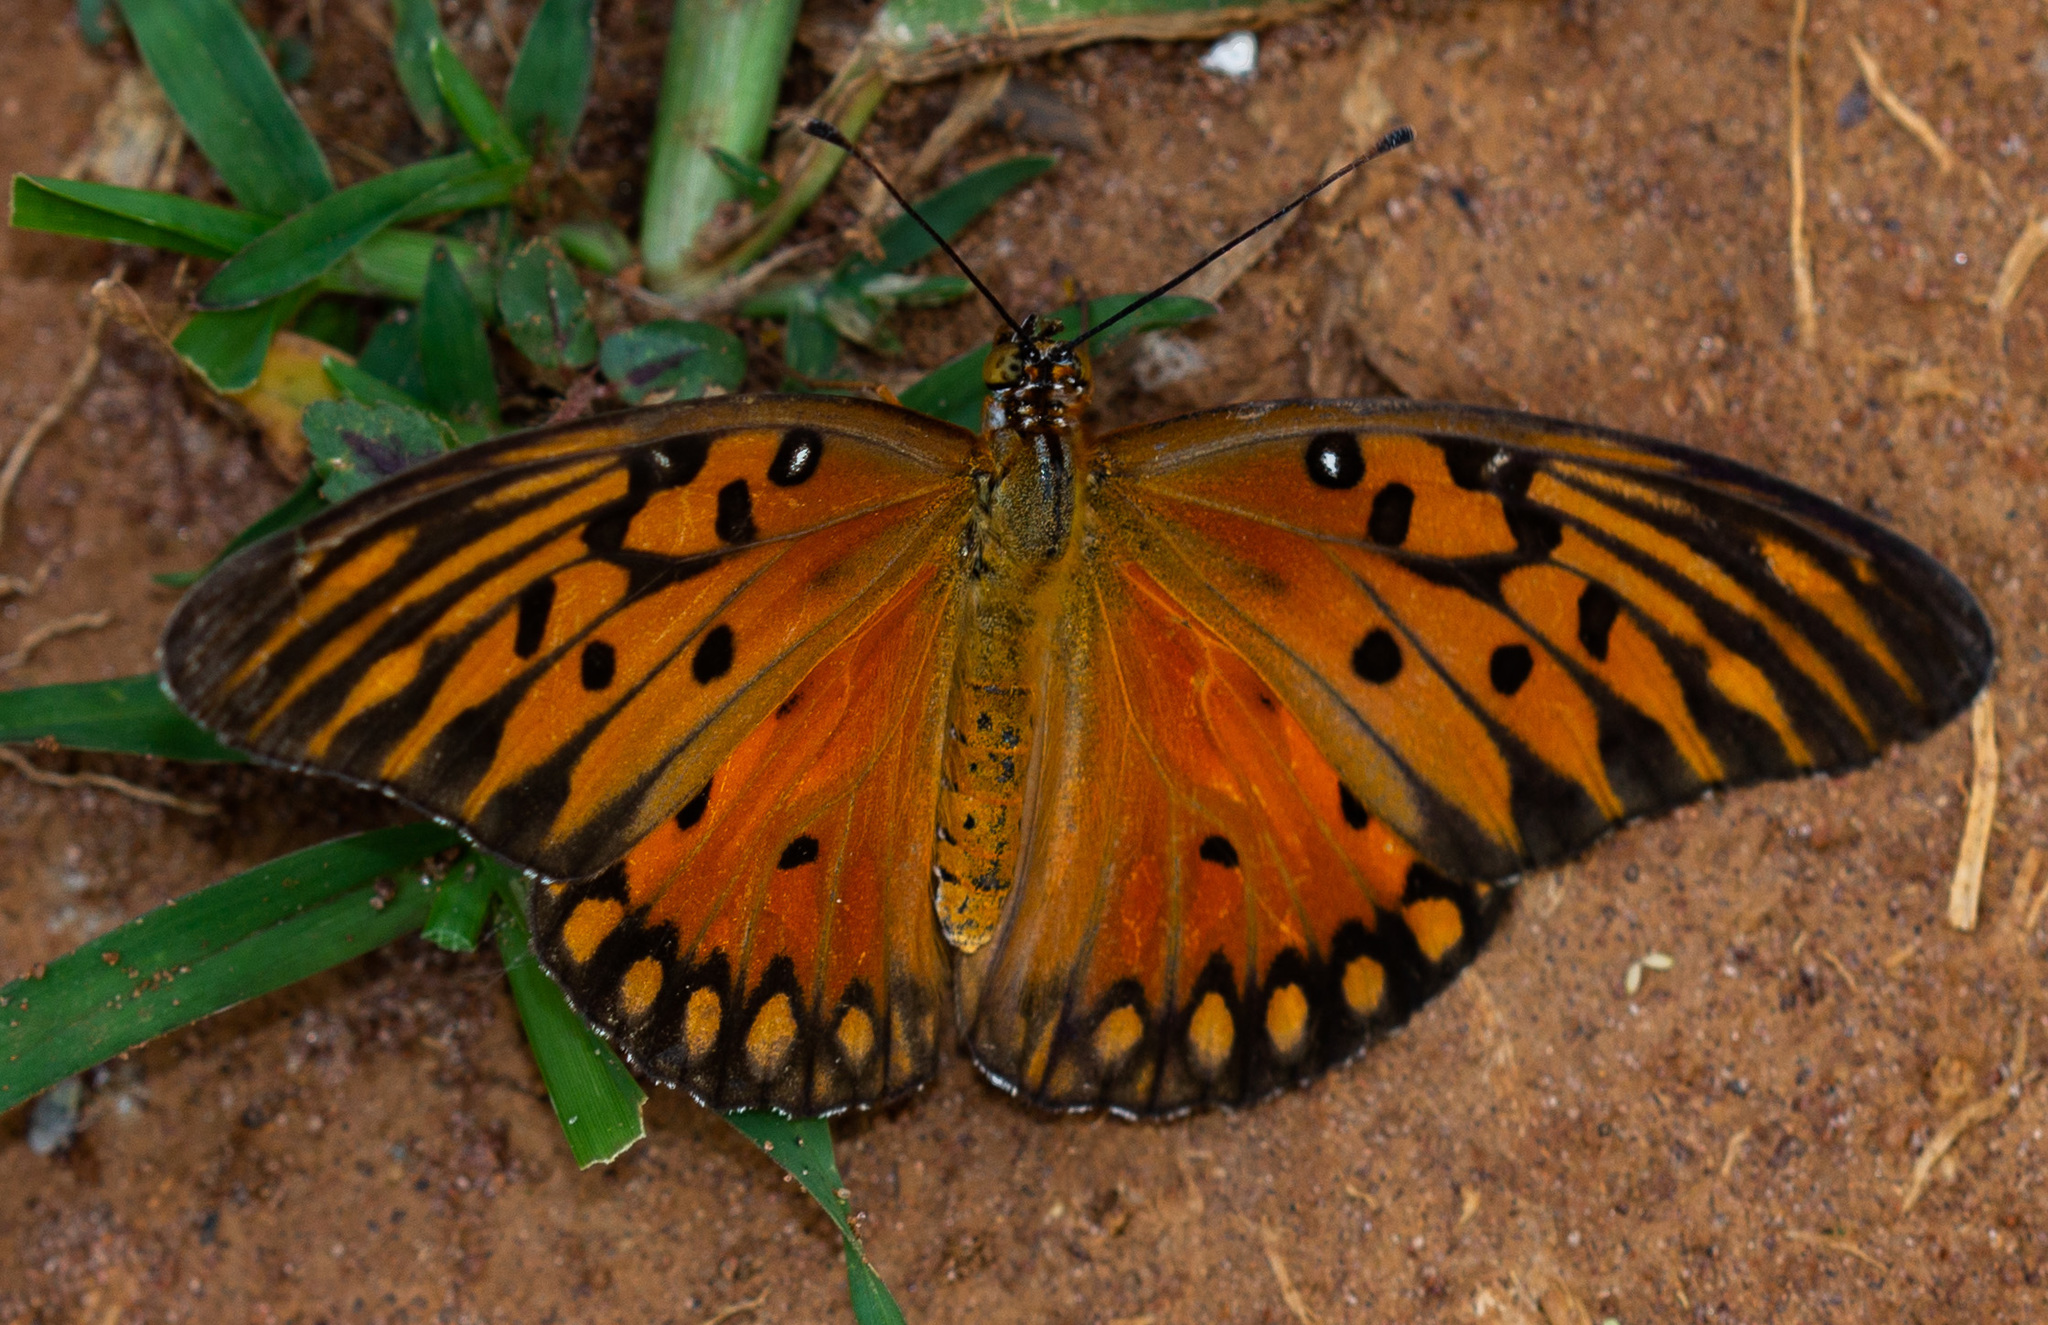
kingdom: Animalia
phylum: Arthropoda
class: Insecta
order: Lepidoptera
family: Nymphalidae
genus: Dione
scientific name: Dione vanillae
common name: Gulf fritillary
